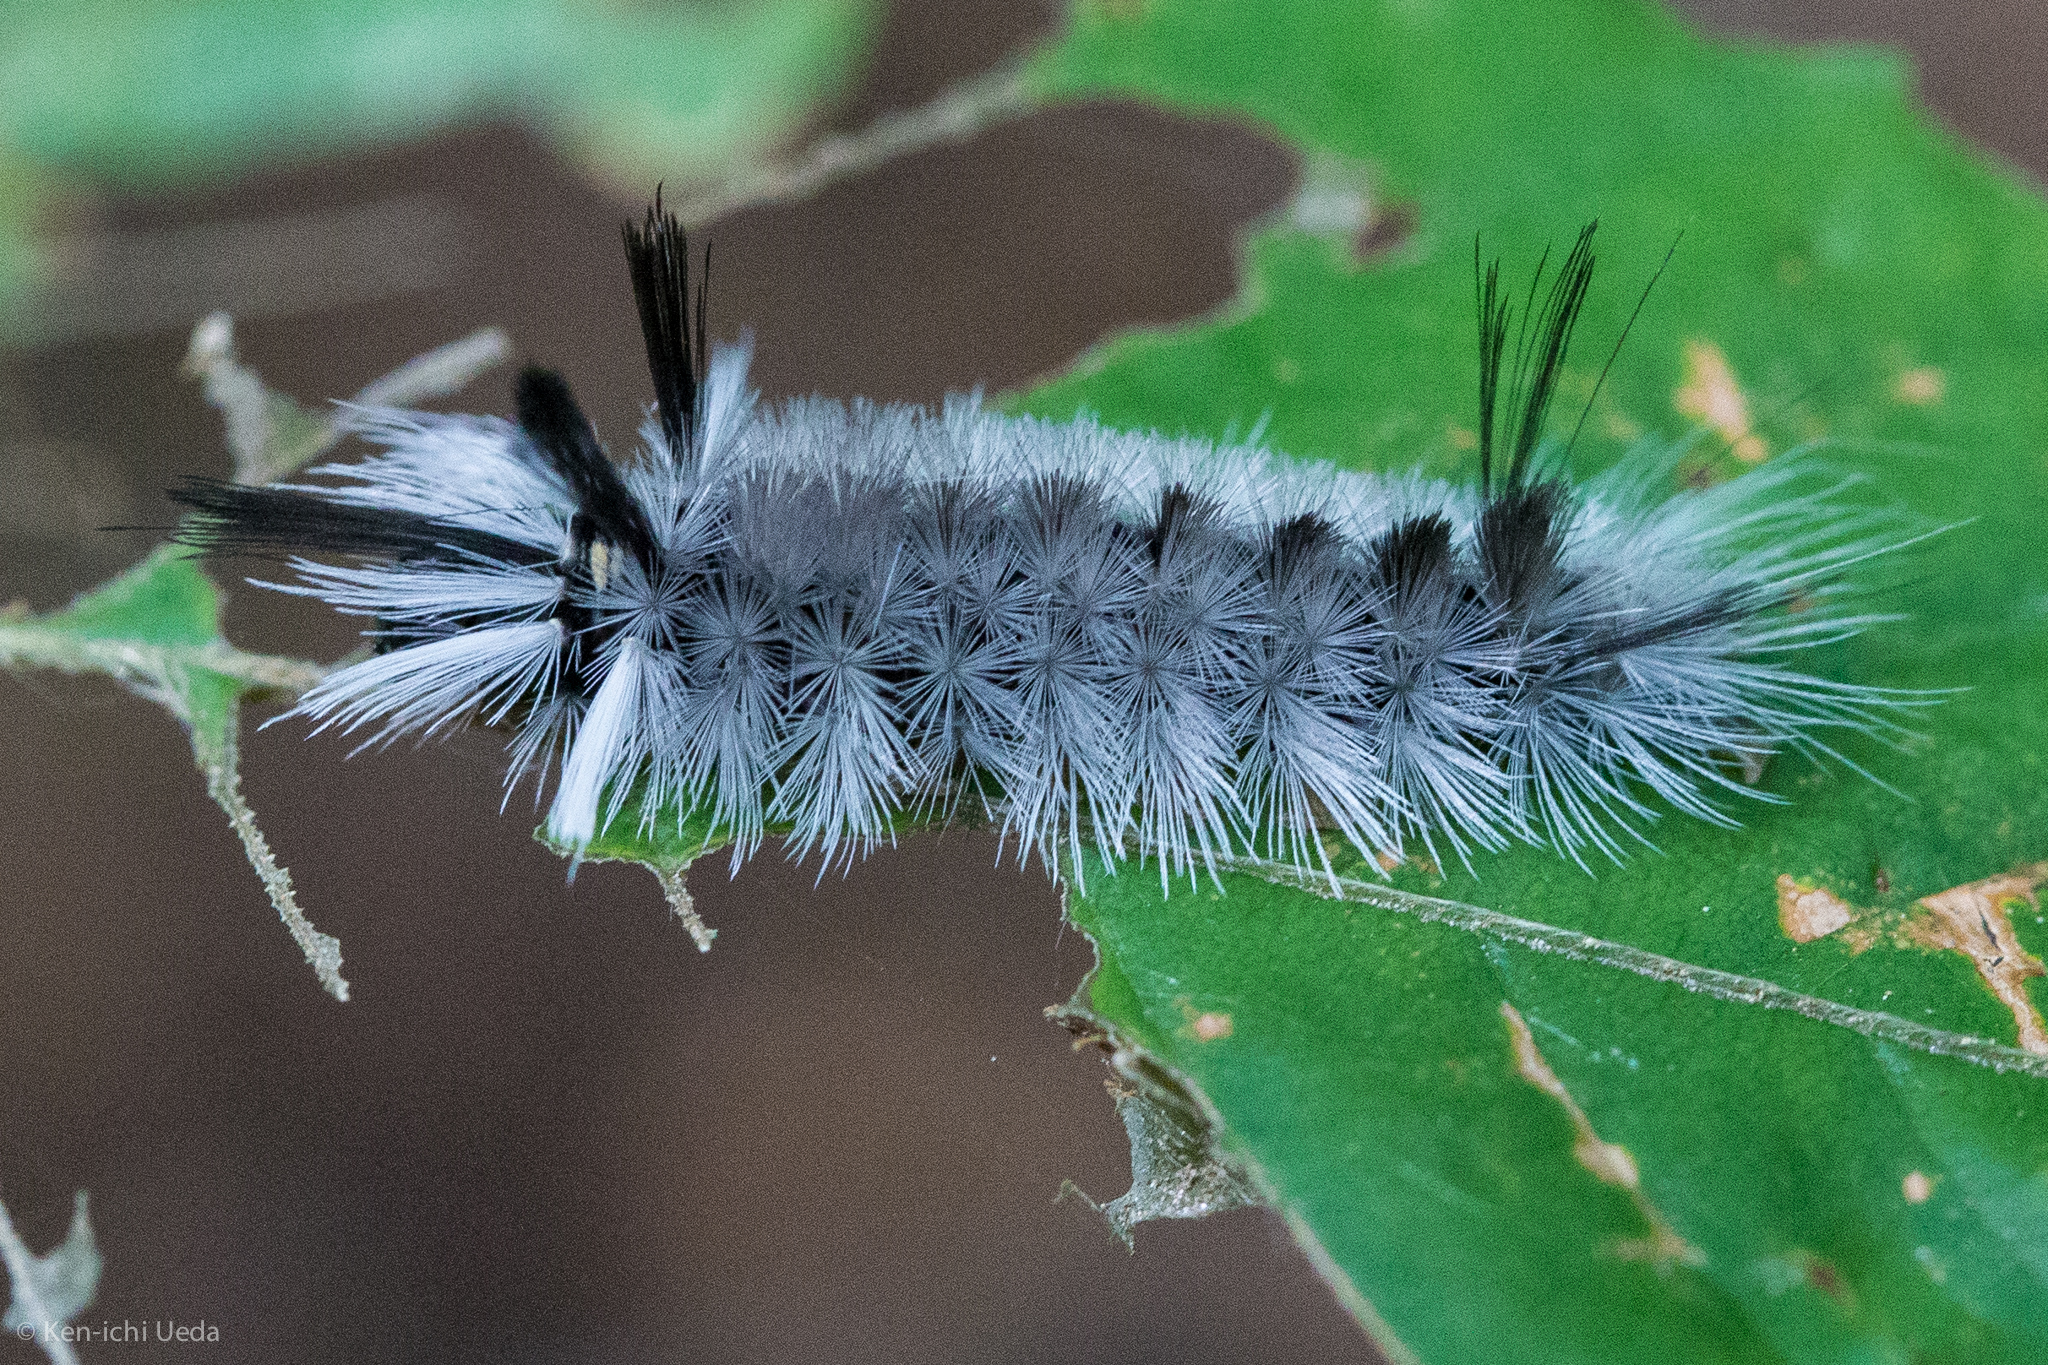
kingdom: Animalia
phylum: Arthropoda
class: Insecta
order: Lepidoptera
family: Erebidae
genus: Halysidota
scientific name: Halysidota tessellaris
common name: Banded tussock moth
